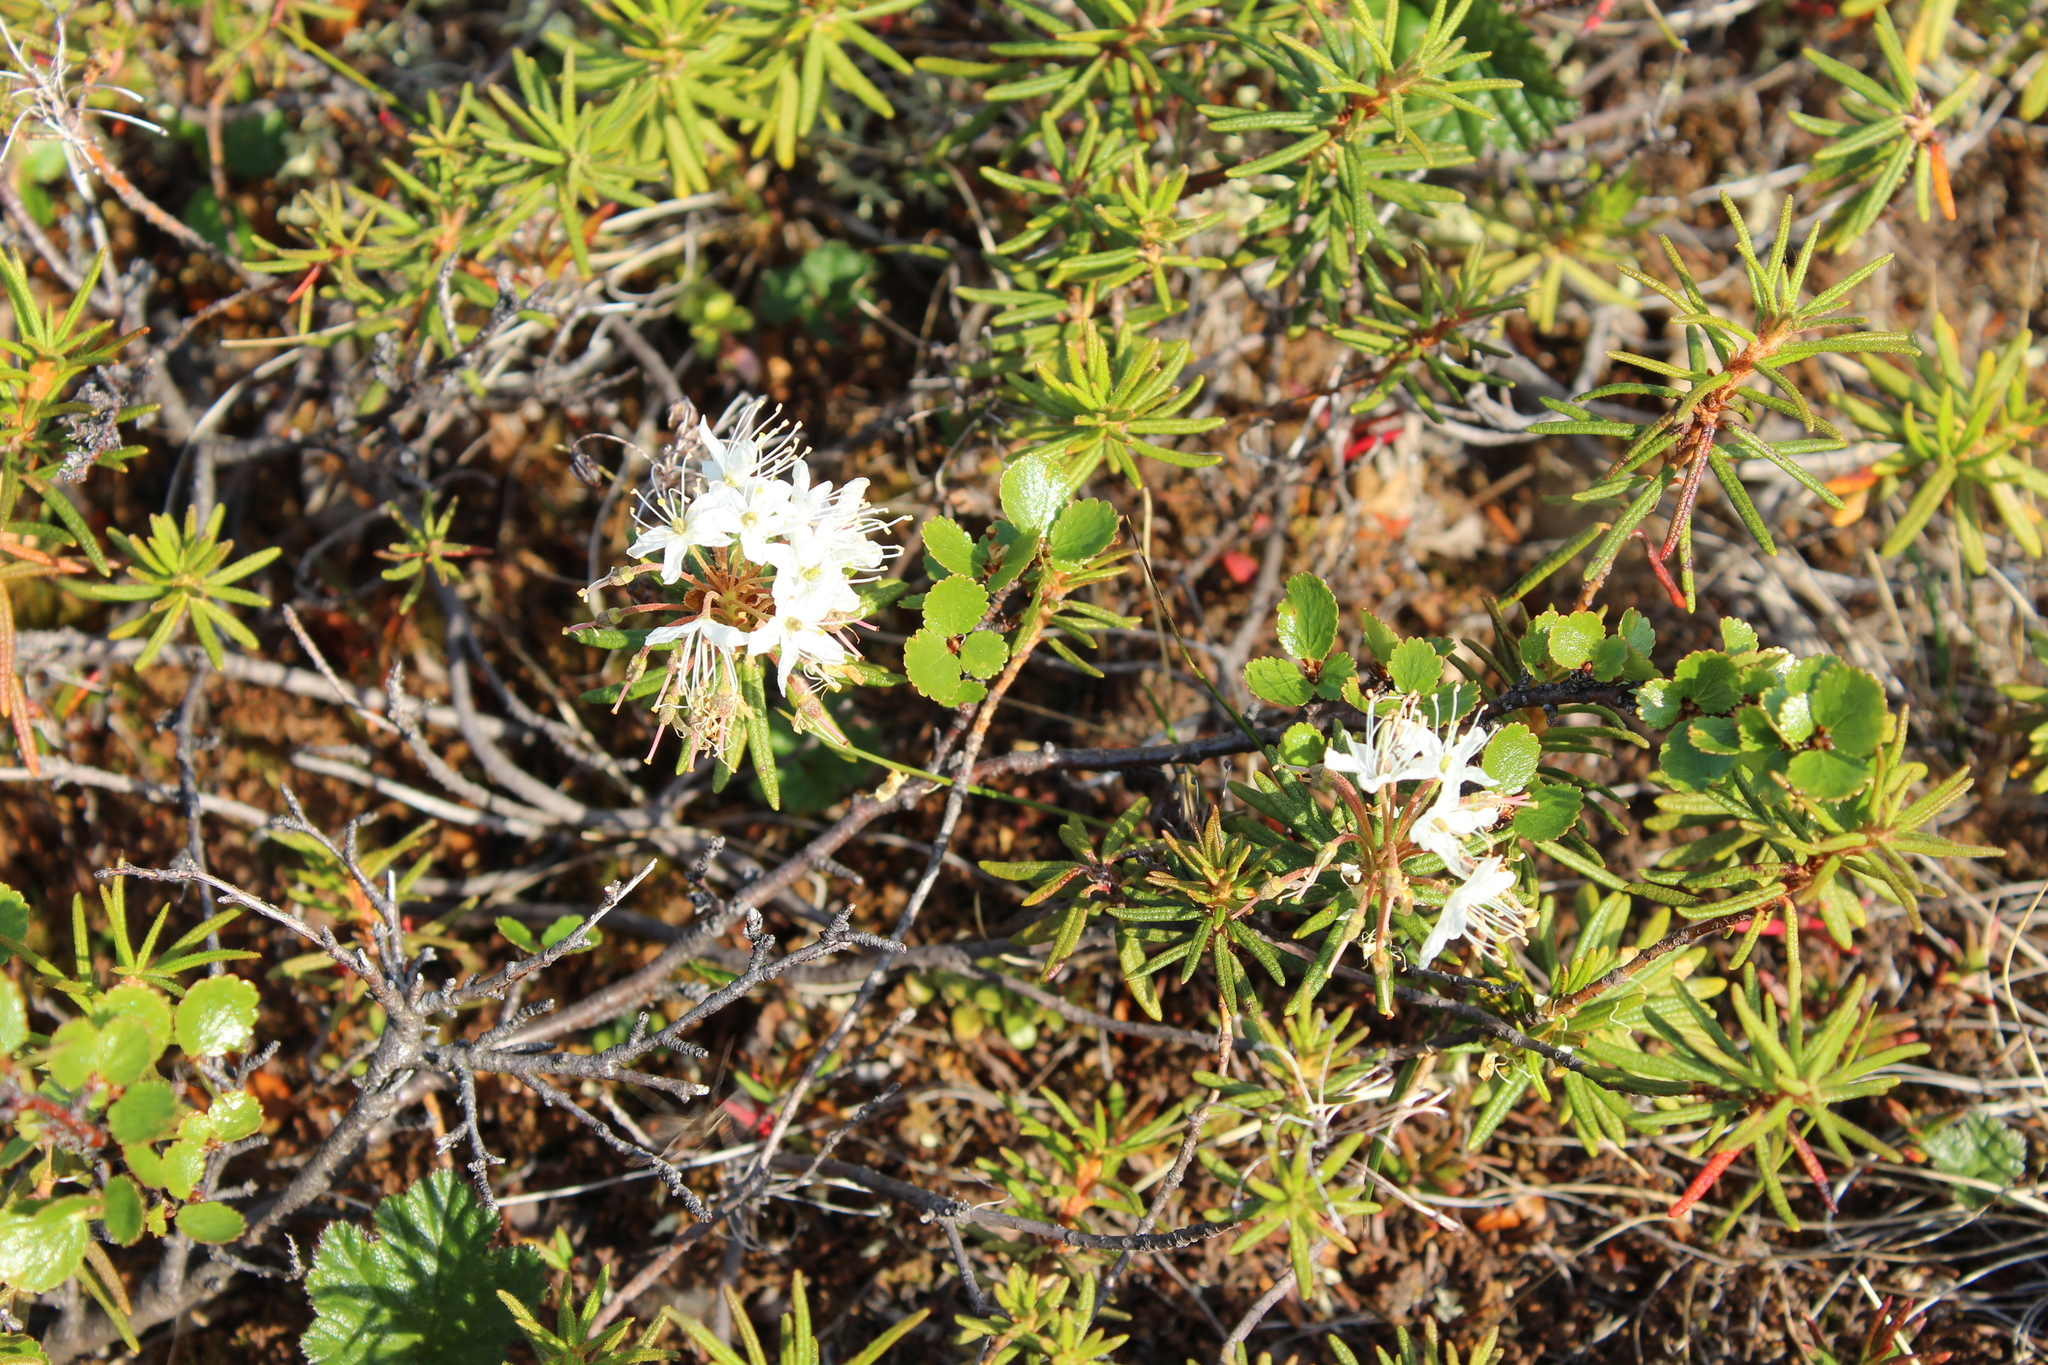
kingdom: Plantae
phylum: Tracheophyta
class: Magnoliopsida
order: Ericales
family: Ericaceae
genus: Rhododendron
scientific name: Rhododendron tomentosum
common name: Marsh labrador tea
